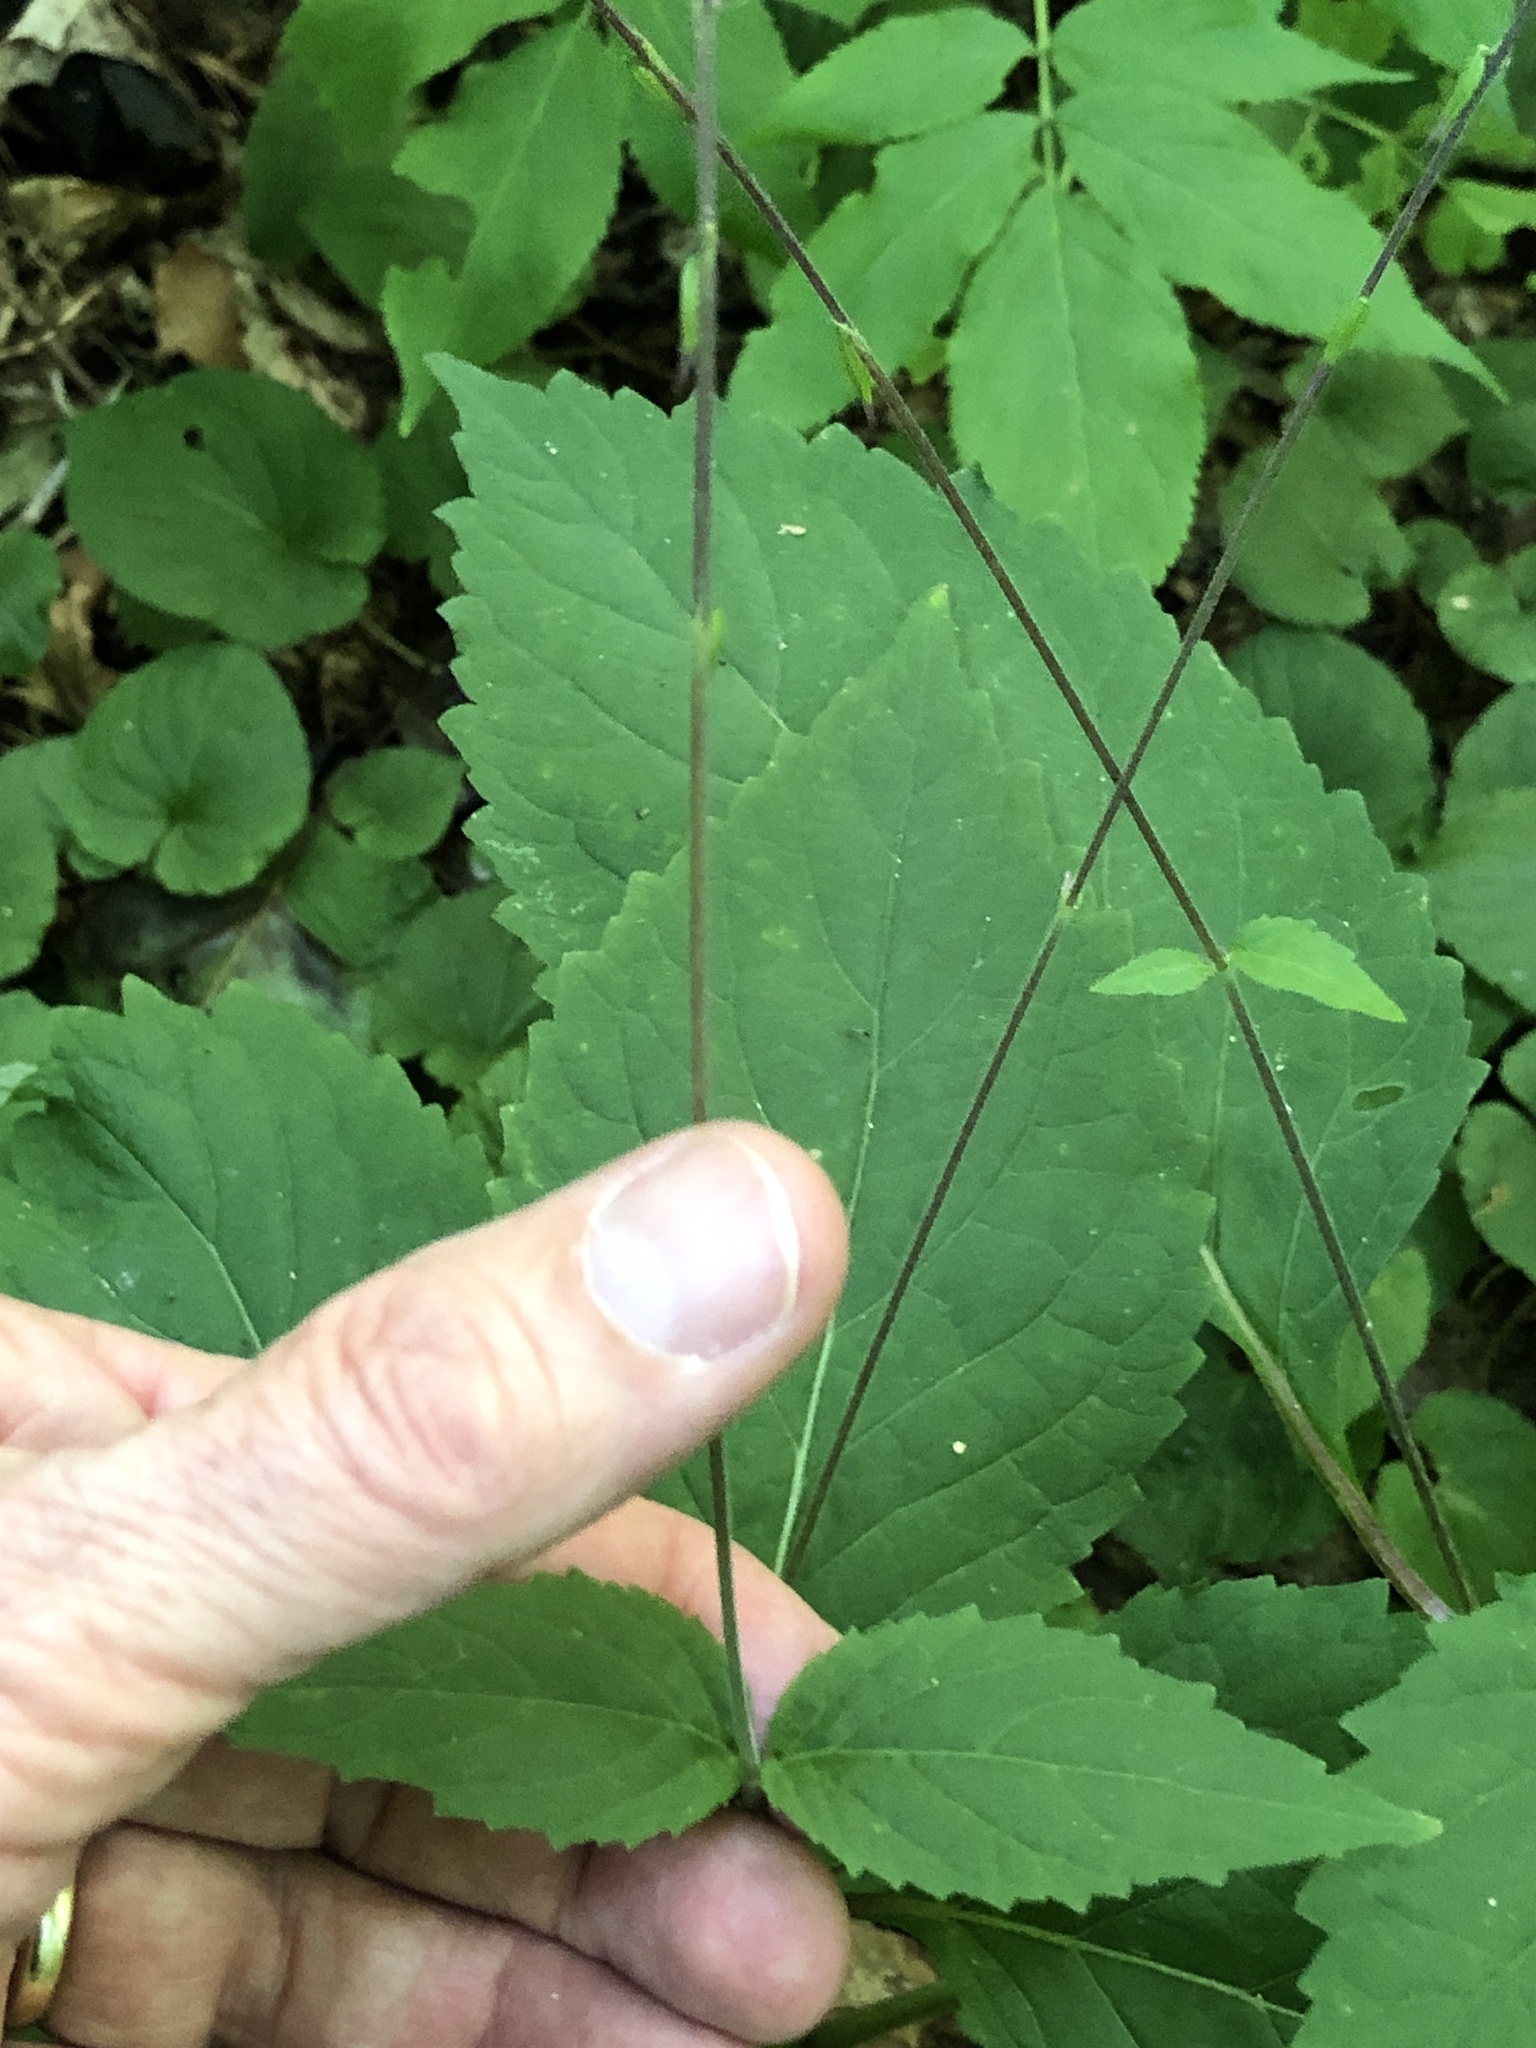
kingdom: Plantae
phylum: Tracheophyta
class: Magnoliopsida
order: Lamiales
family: Phrymaceae
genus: Phryma
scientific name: Phryma leptostachya
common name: American lopseed
